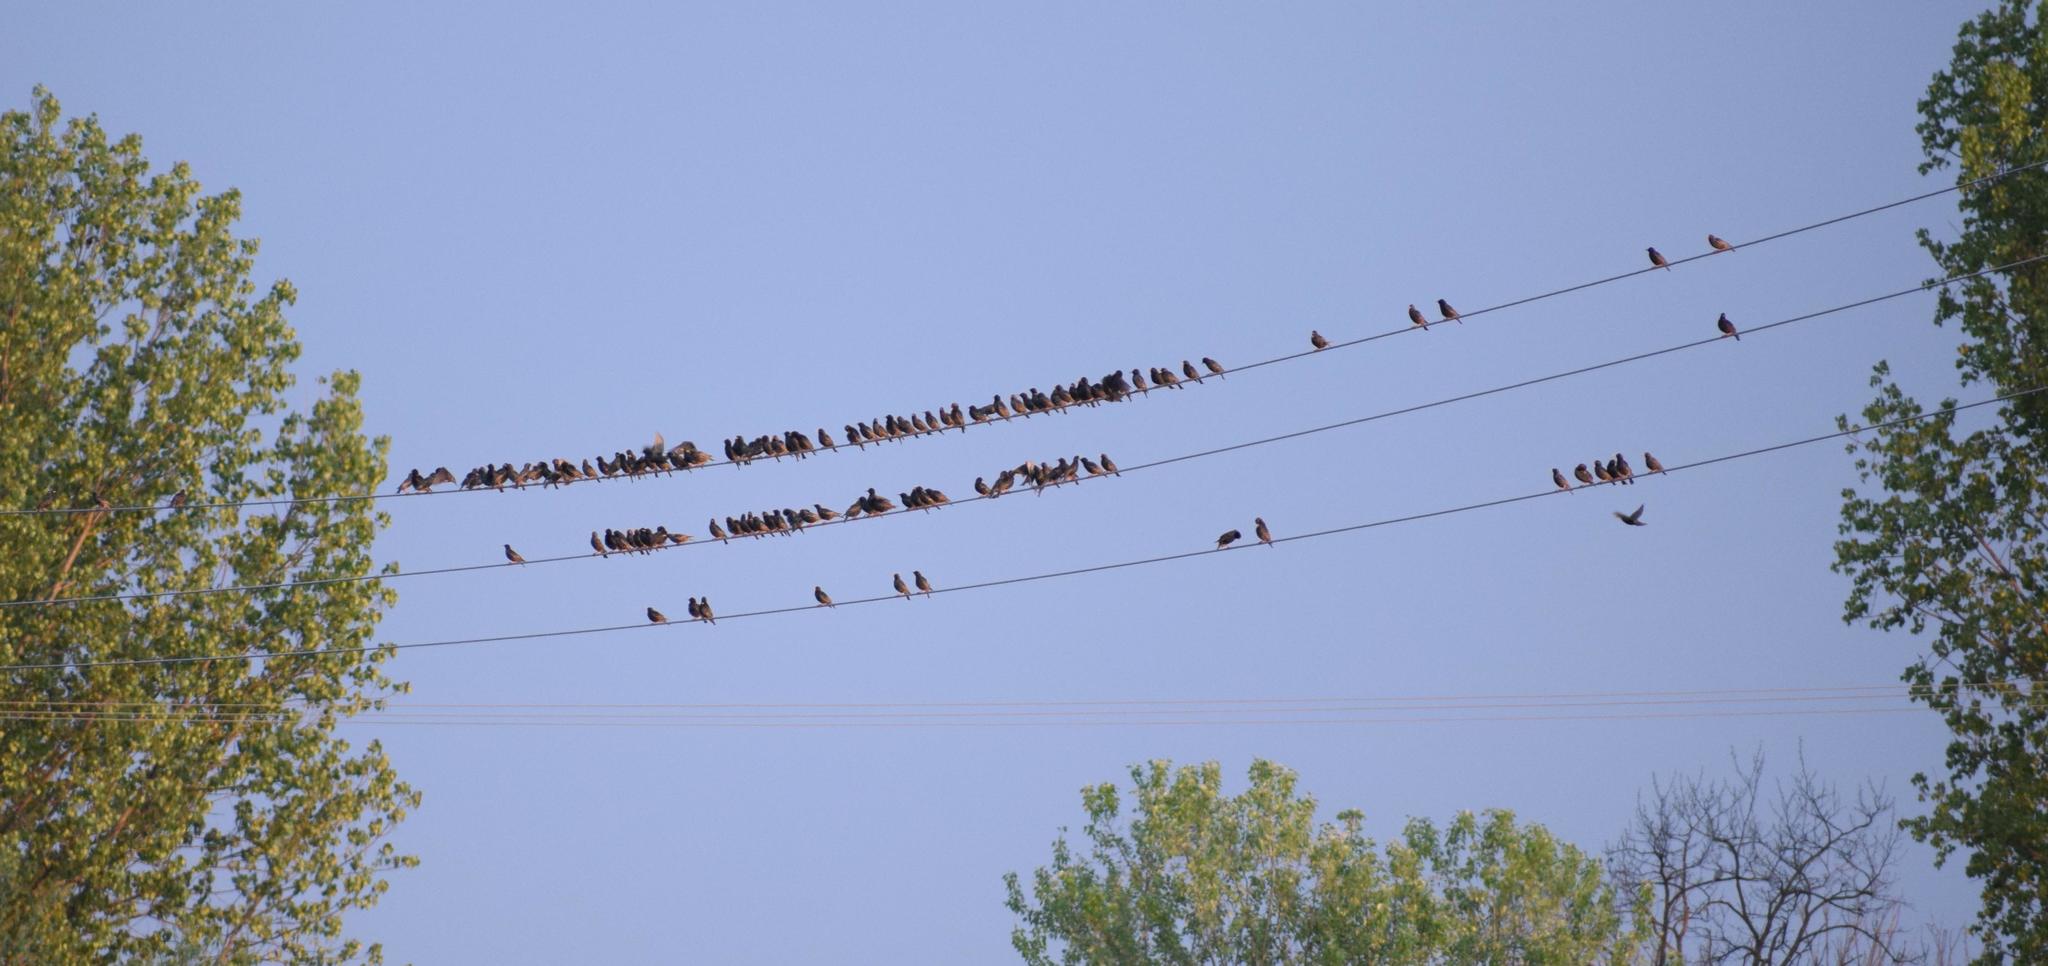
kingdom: Animalia
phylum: Chordata
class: Aves
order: Passeriformes
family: Sturnidae
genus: Sturnus
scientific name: Sturnus vulgaris
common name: Common starling
